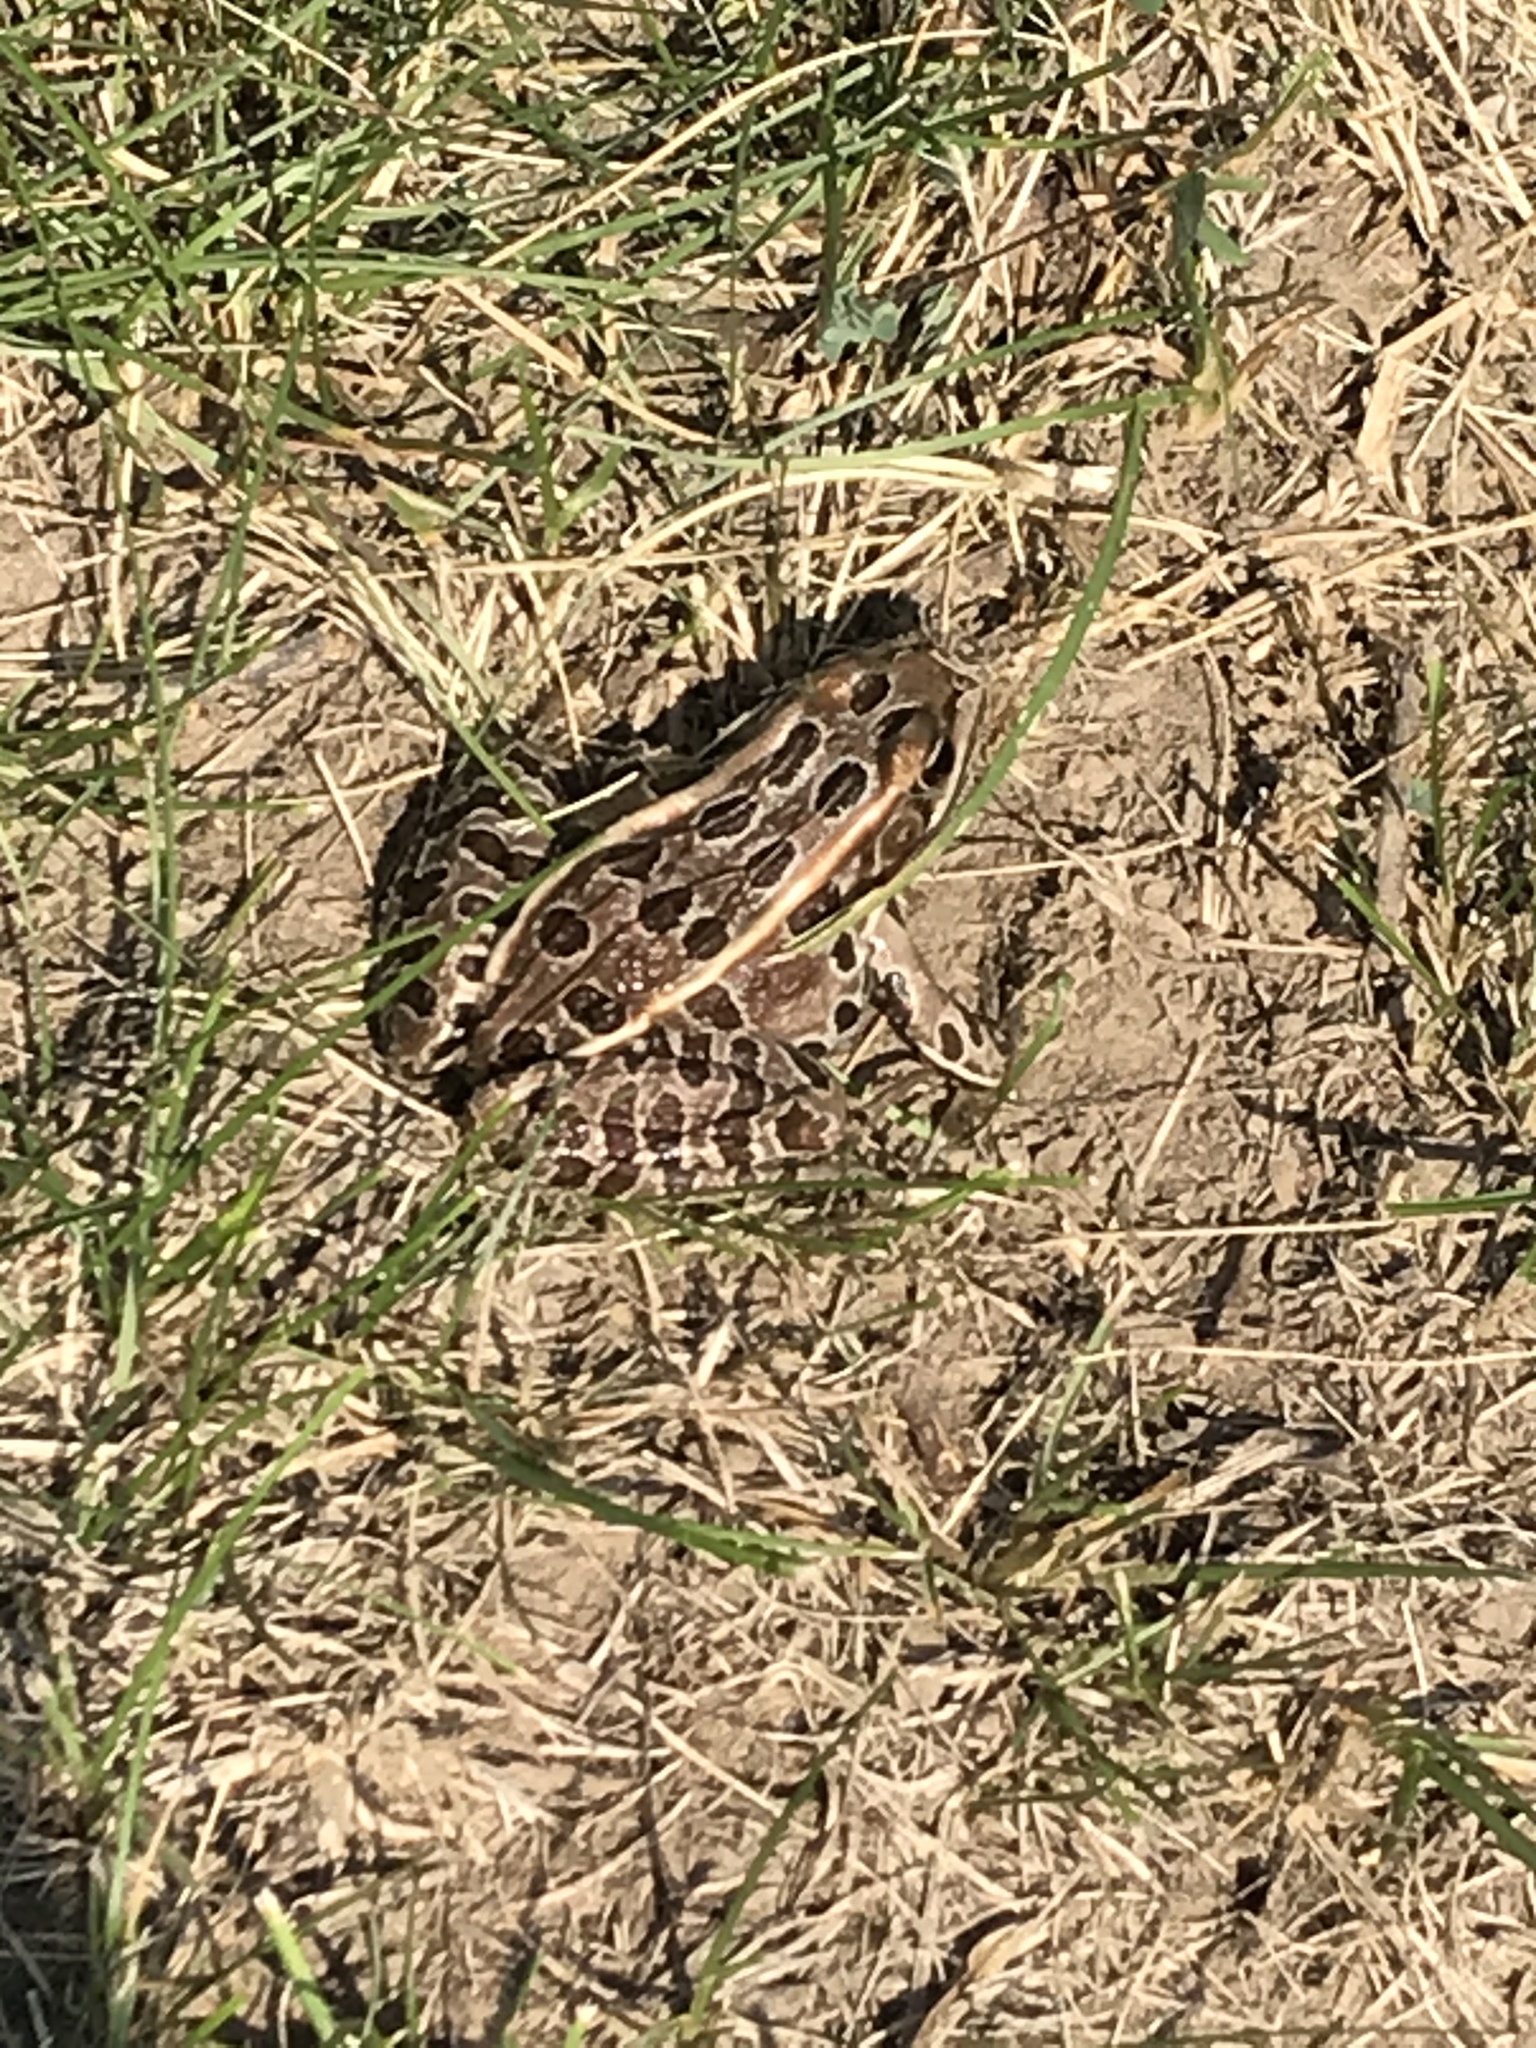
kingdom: Animalia
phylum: Chordata
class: Amphibia
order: Anura
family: Ranidae
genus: Lithobates
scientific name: Lithobates pipiens
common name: Northern leopard frog
